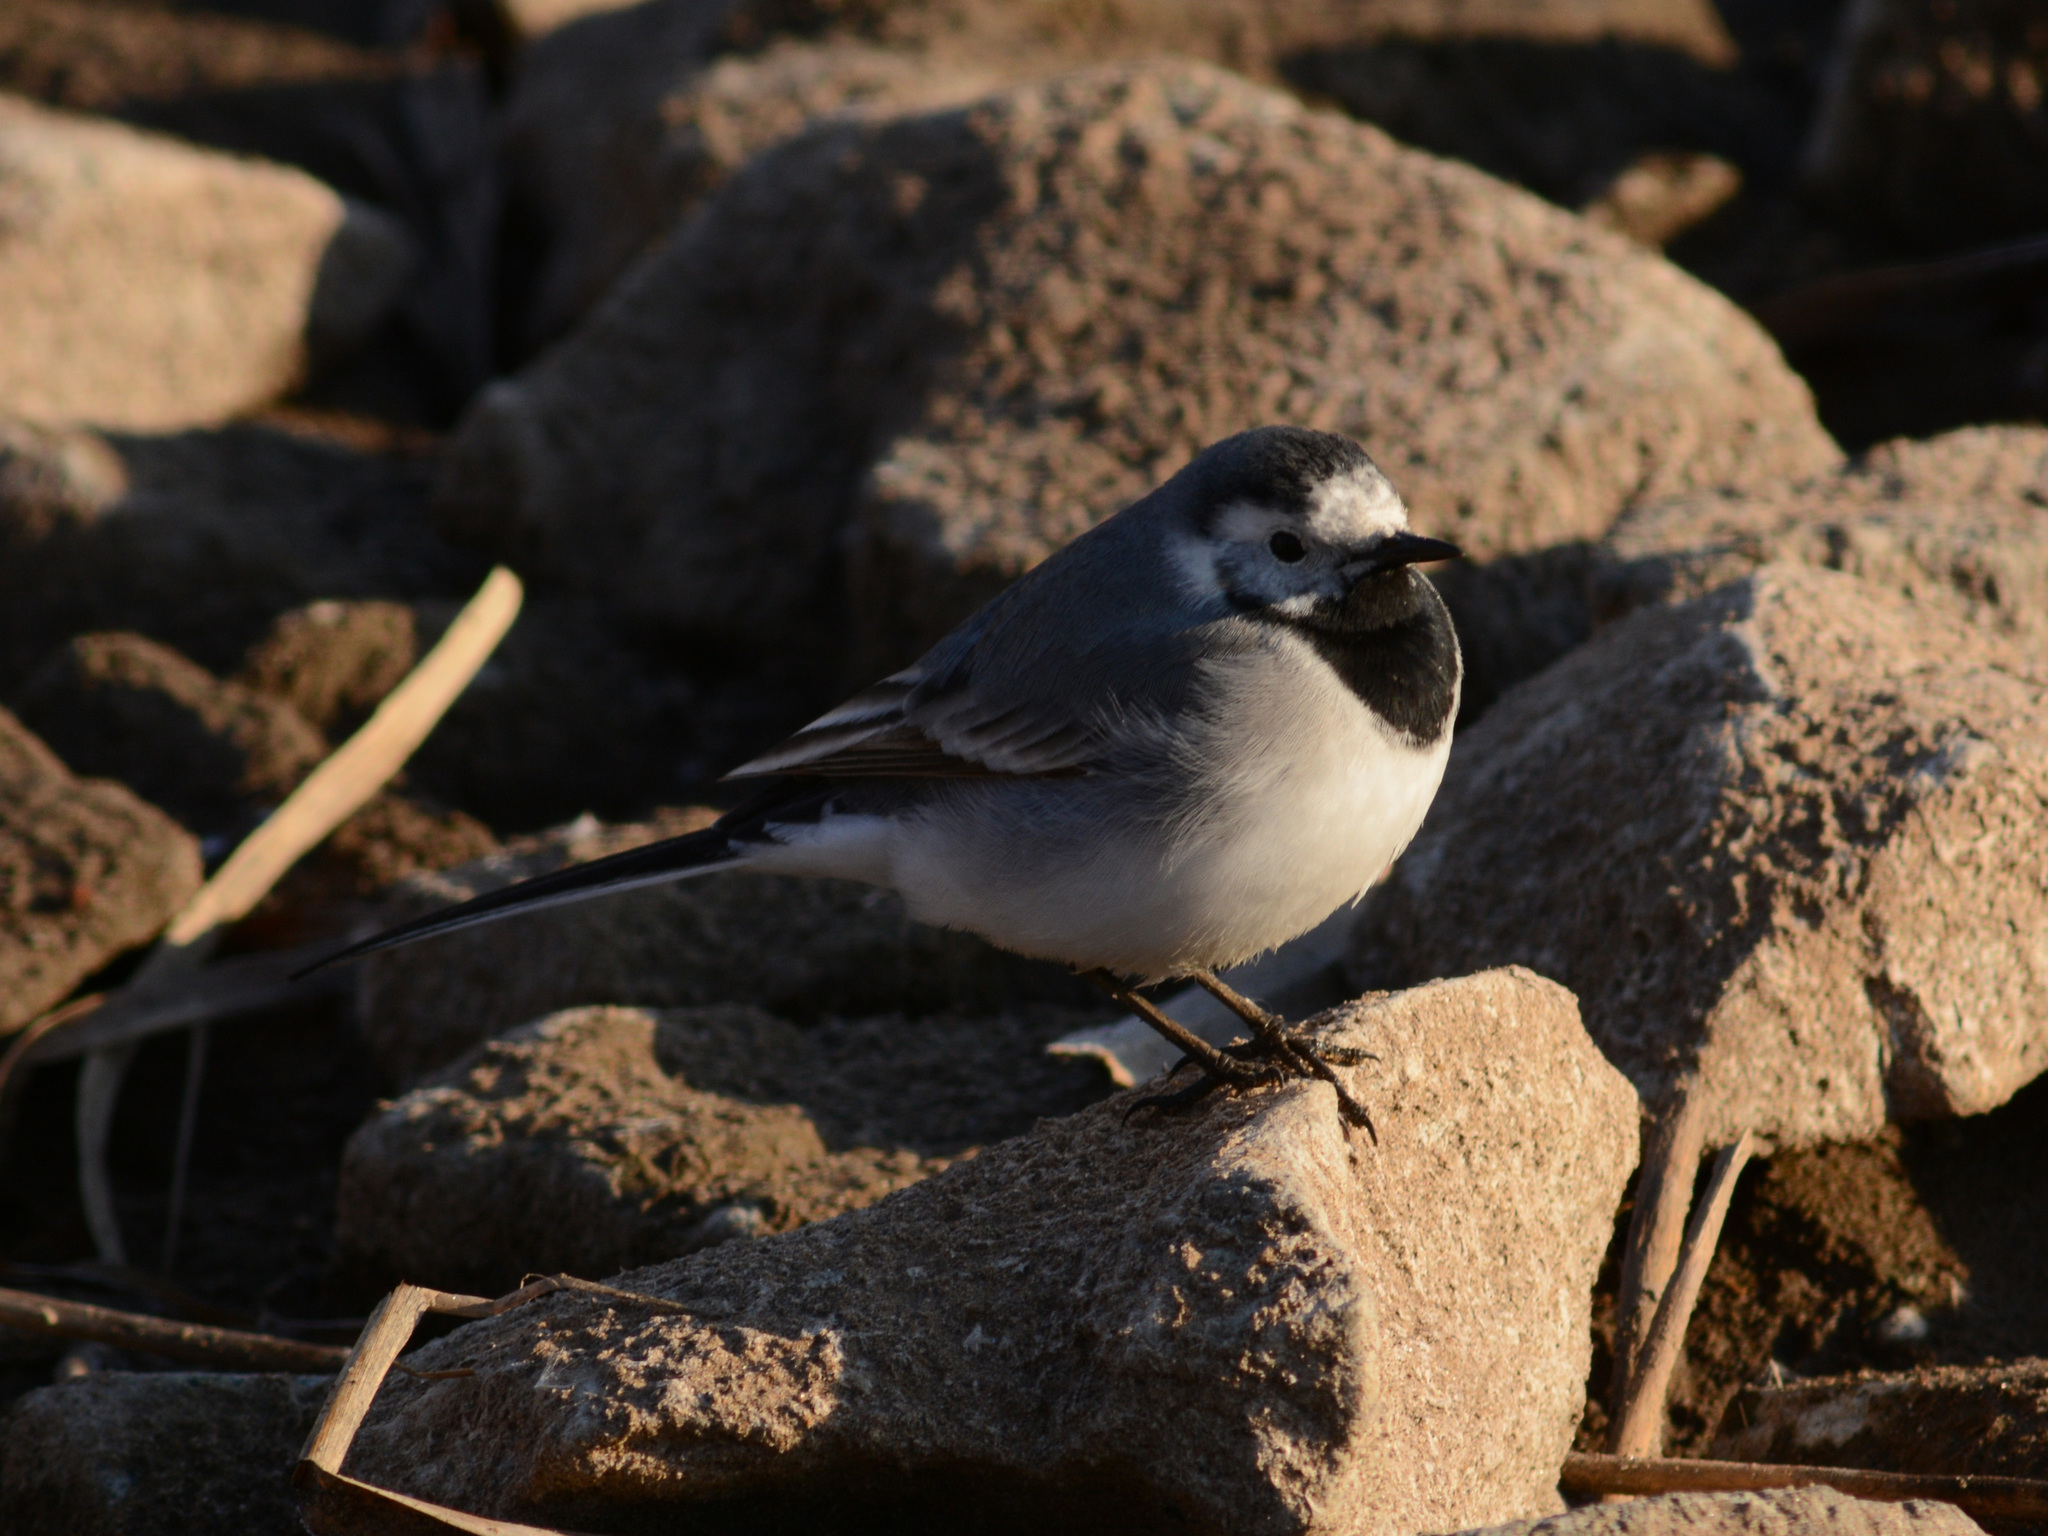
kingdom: Animalia
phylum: Chordata
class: Aves
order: Passeriformes
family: Motacillidae
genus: Motacilla
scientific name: Motacilla alba
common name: White wagtail
